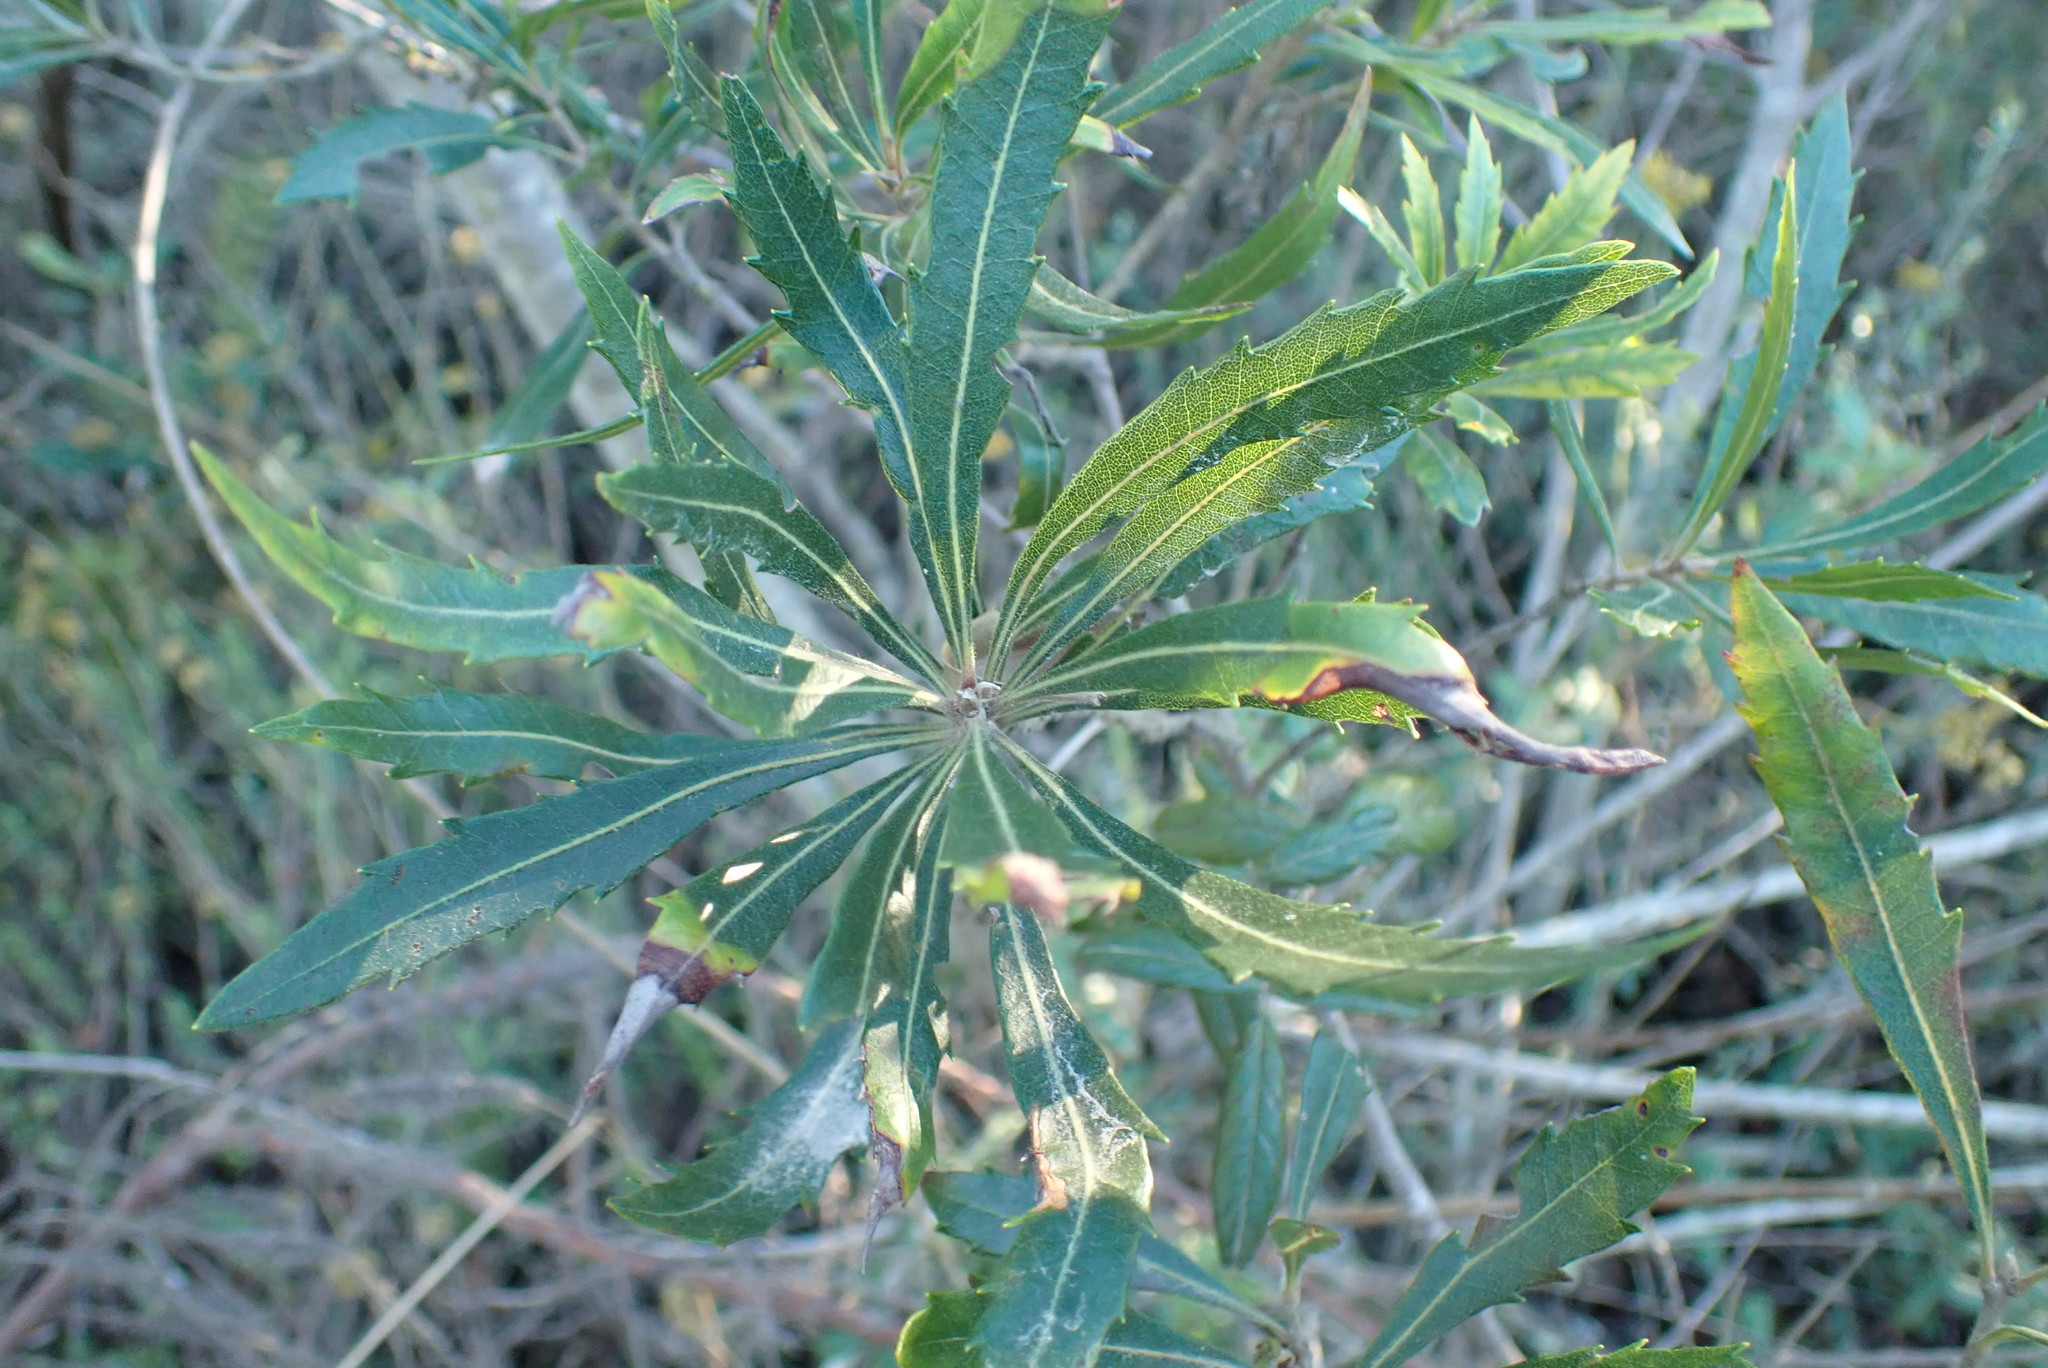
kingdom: Plantae
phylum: Tracheophyta
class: Magnoliopsida
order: Fagales
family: Myricaceae
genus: Morella
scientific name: Morella serrata
